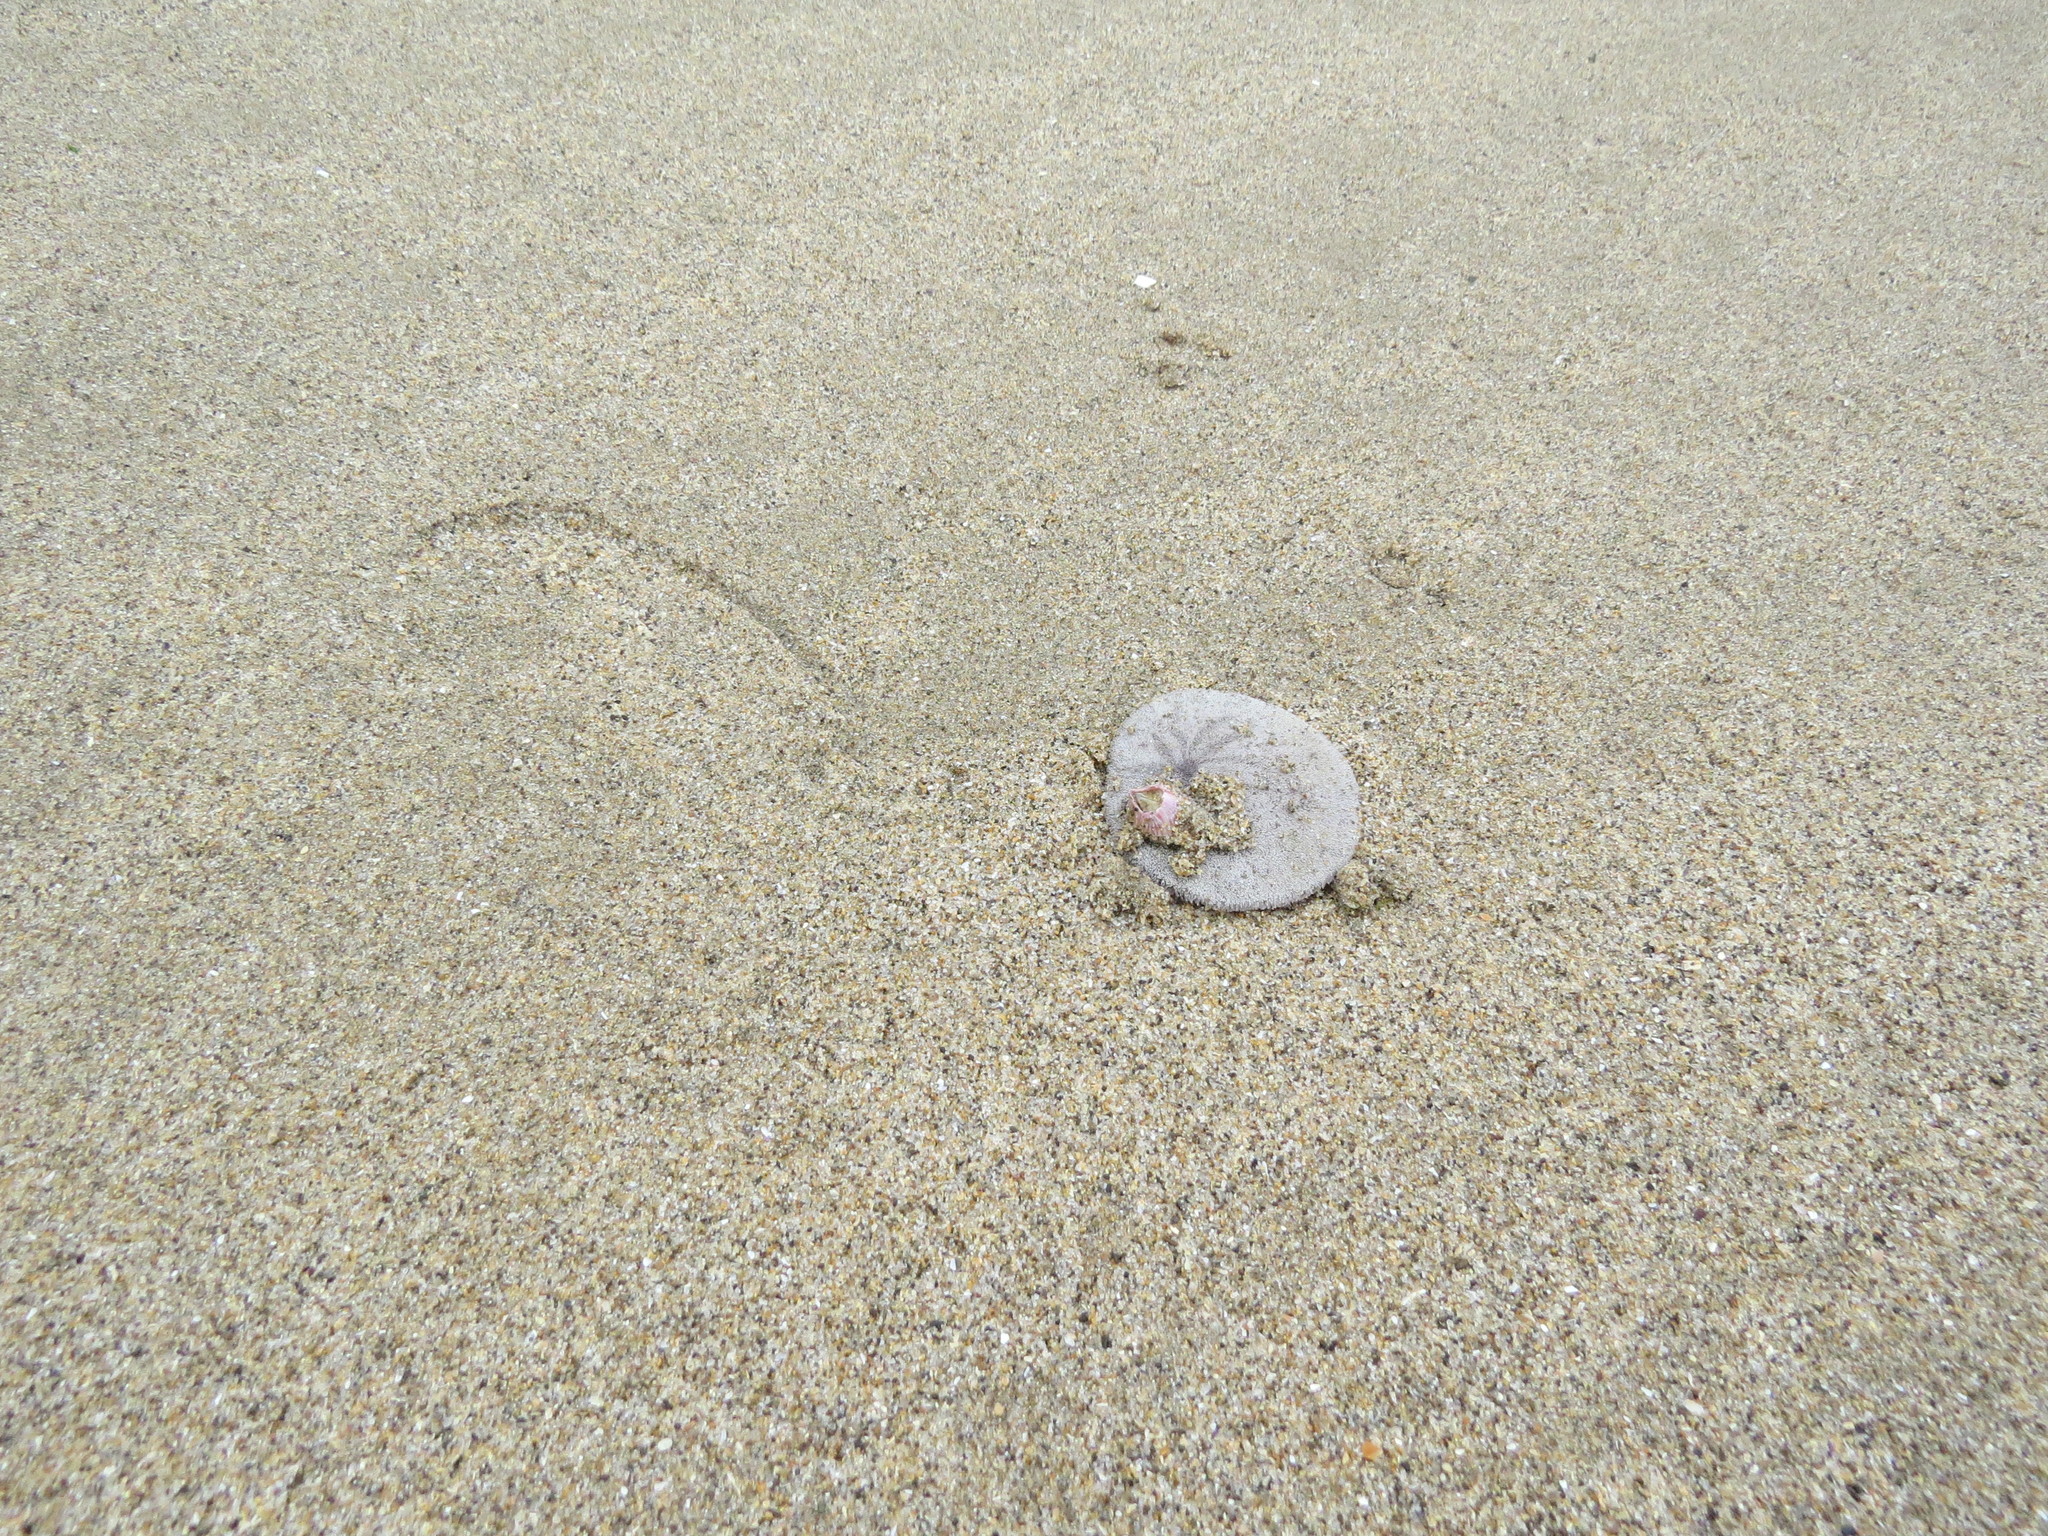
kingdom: Animalia
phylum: Echinodermata
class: Echinoidea
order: Echinolampadacea
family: Dendrasteridae
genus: Dendraster
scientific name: Dendraster excentricus
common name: Eccentric sand dollar sea urchin
